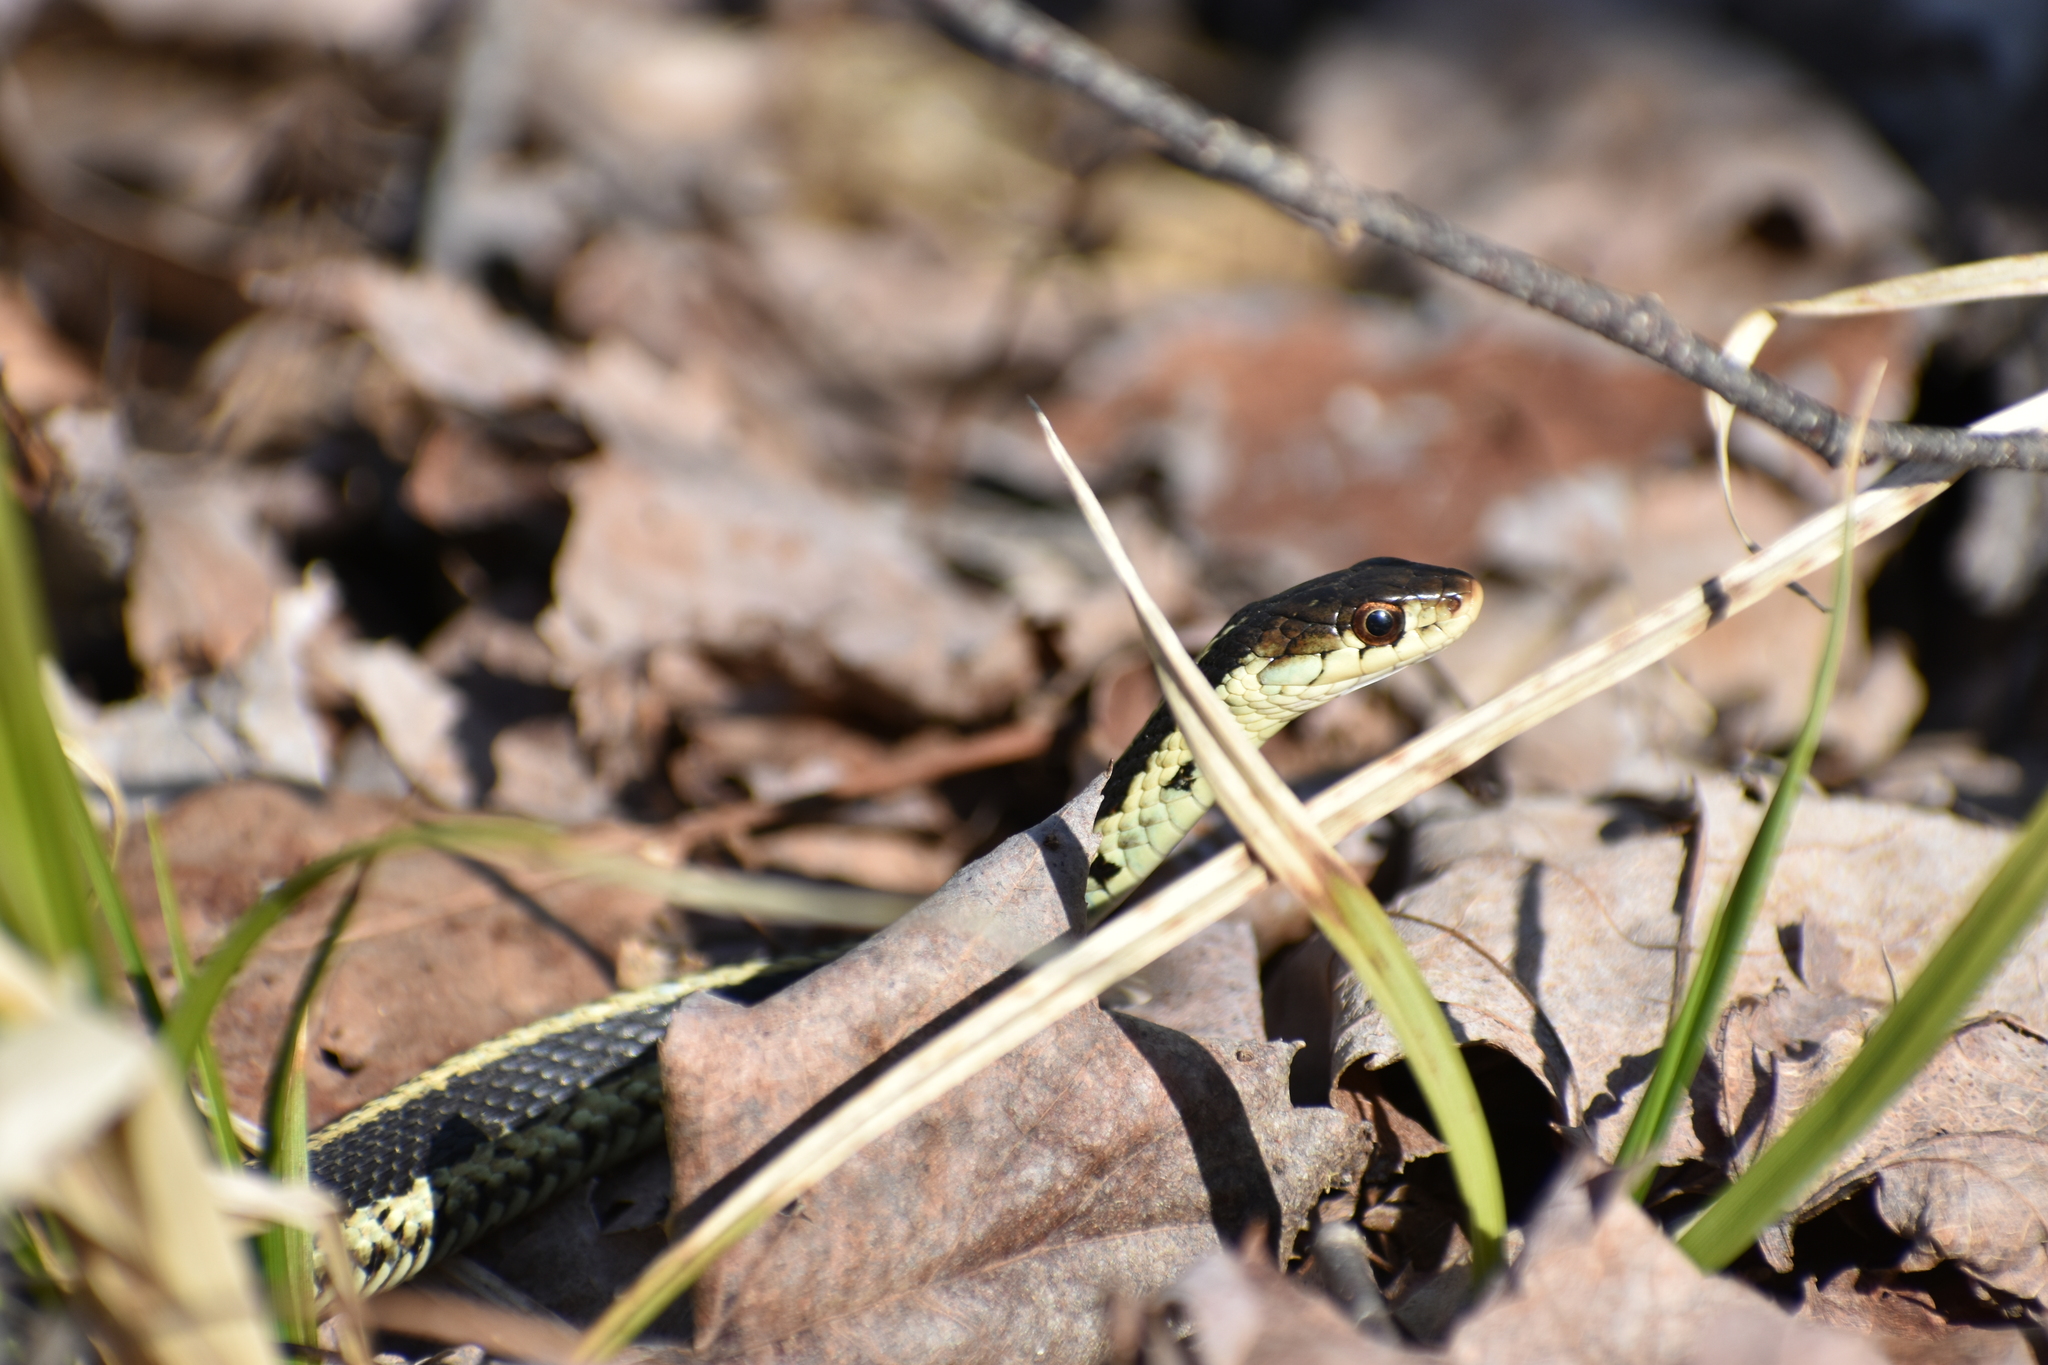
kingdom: Animalia
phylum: Chordata
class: Squamata
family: Colubridae
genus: Thamnophis
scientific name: Thamnophis sirtalis
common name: Common garter snake
